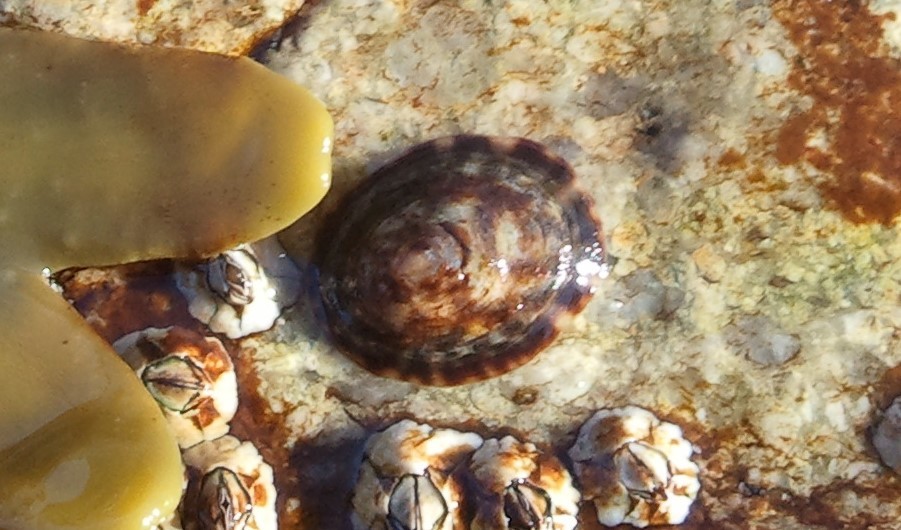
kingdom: Animalia
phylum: Mollusca
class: Gastropoda
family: Lottiidae
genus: Testudinalia
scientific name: Testudinalia testudinalis
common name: Common tortoiseshell limpet
